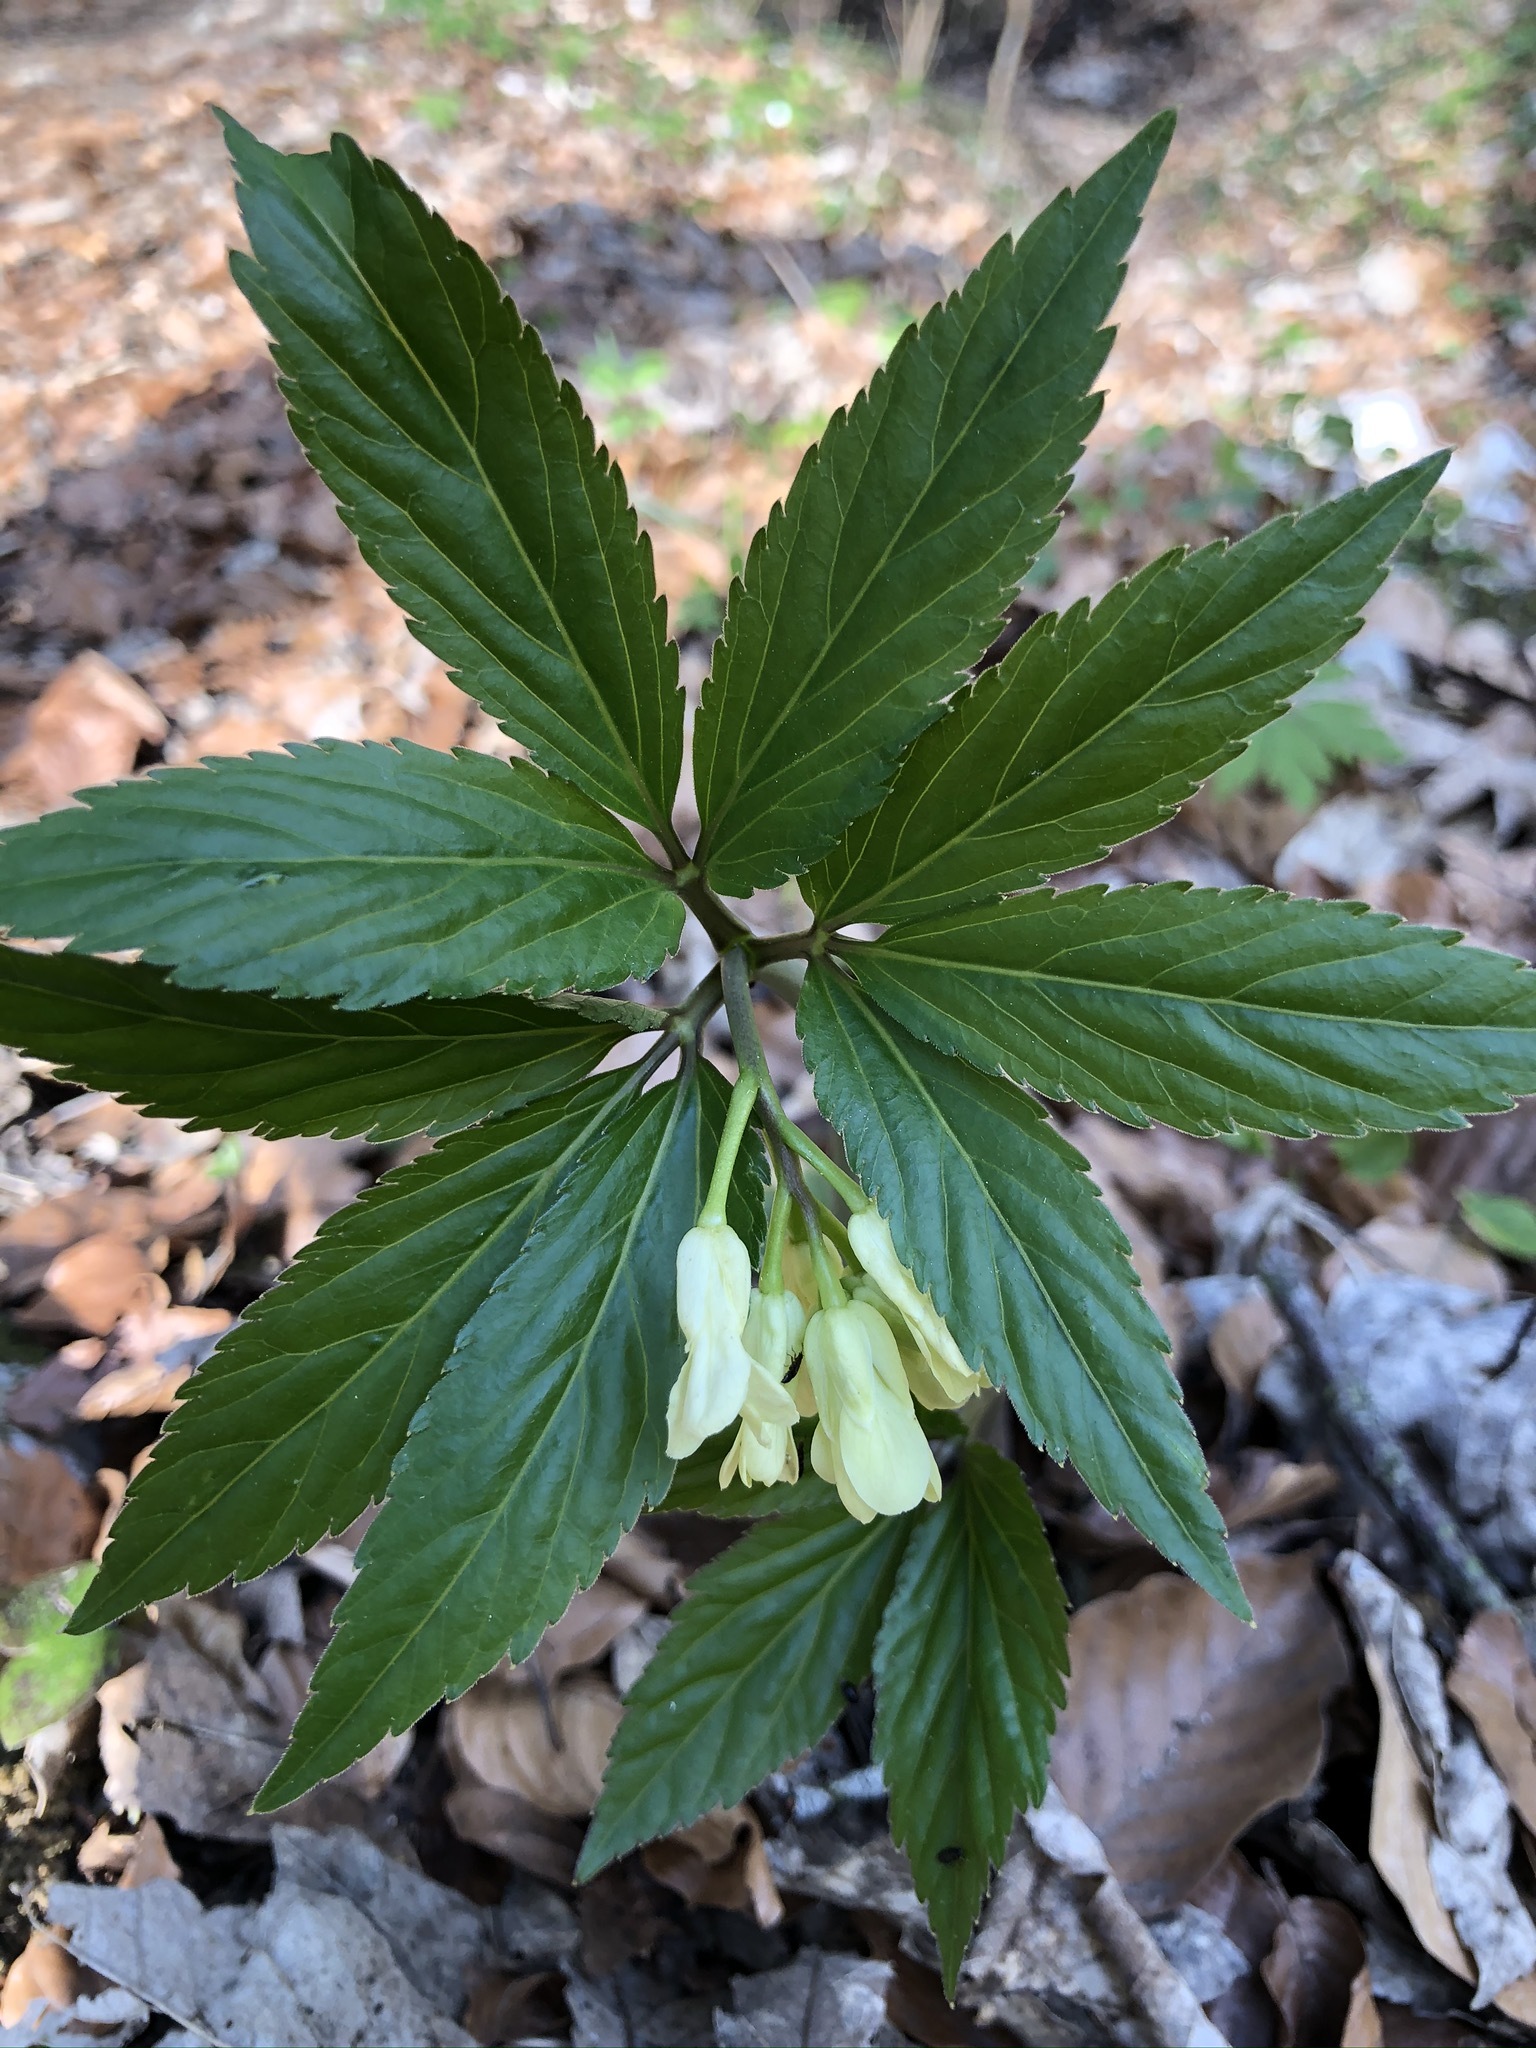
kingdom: Plantae
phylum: Tracheophyta
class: Magnoliopsida
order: Brassicales
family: Brassicaceae
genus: Cardamine
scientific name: Cardamine enneaphyllos
